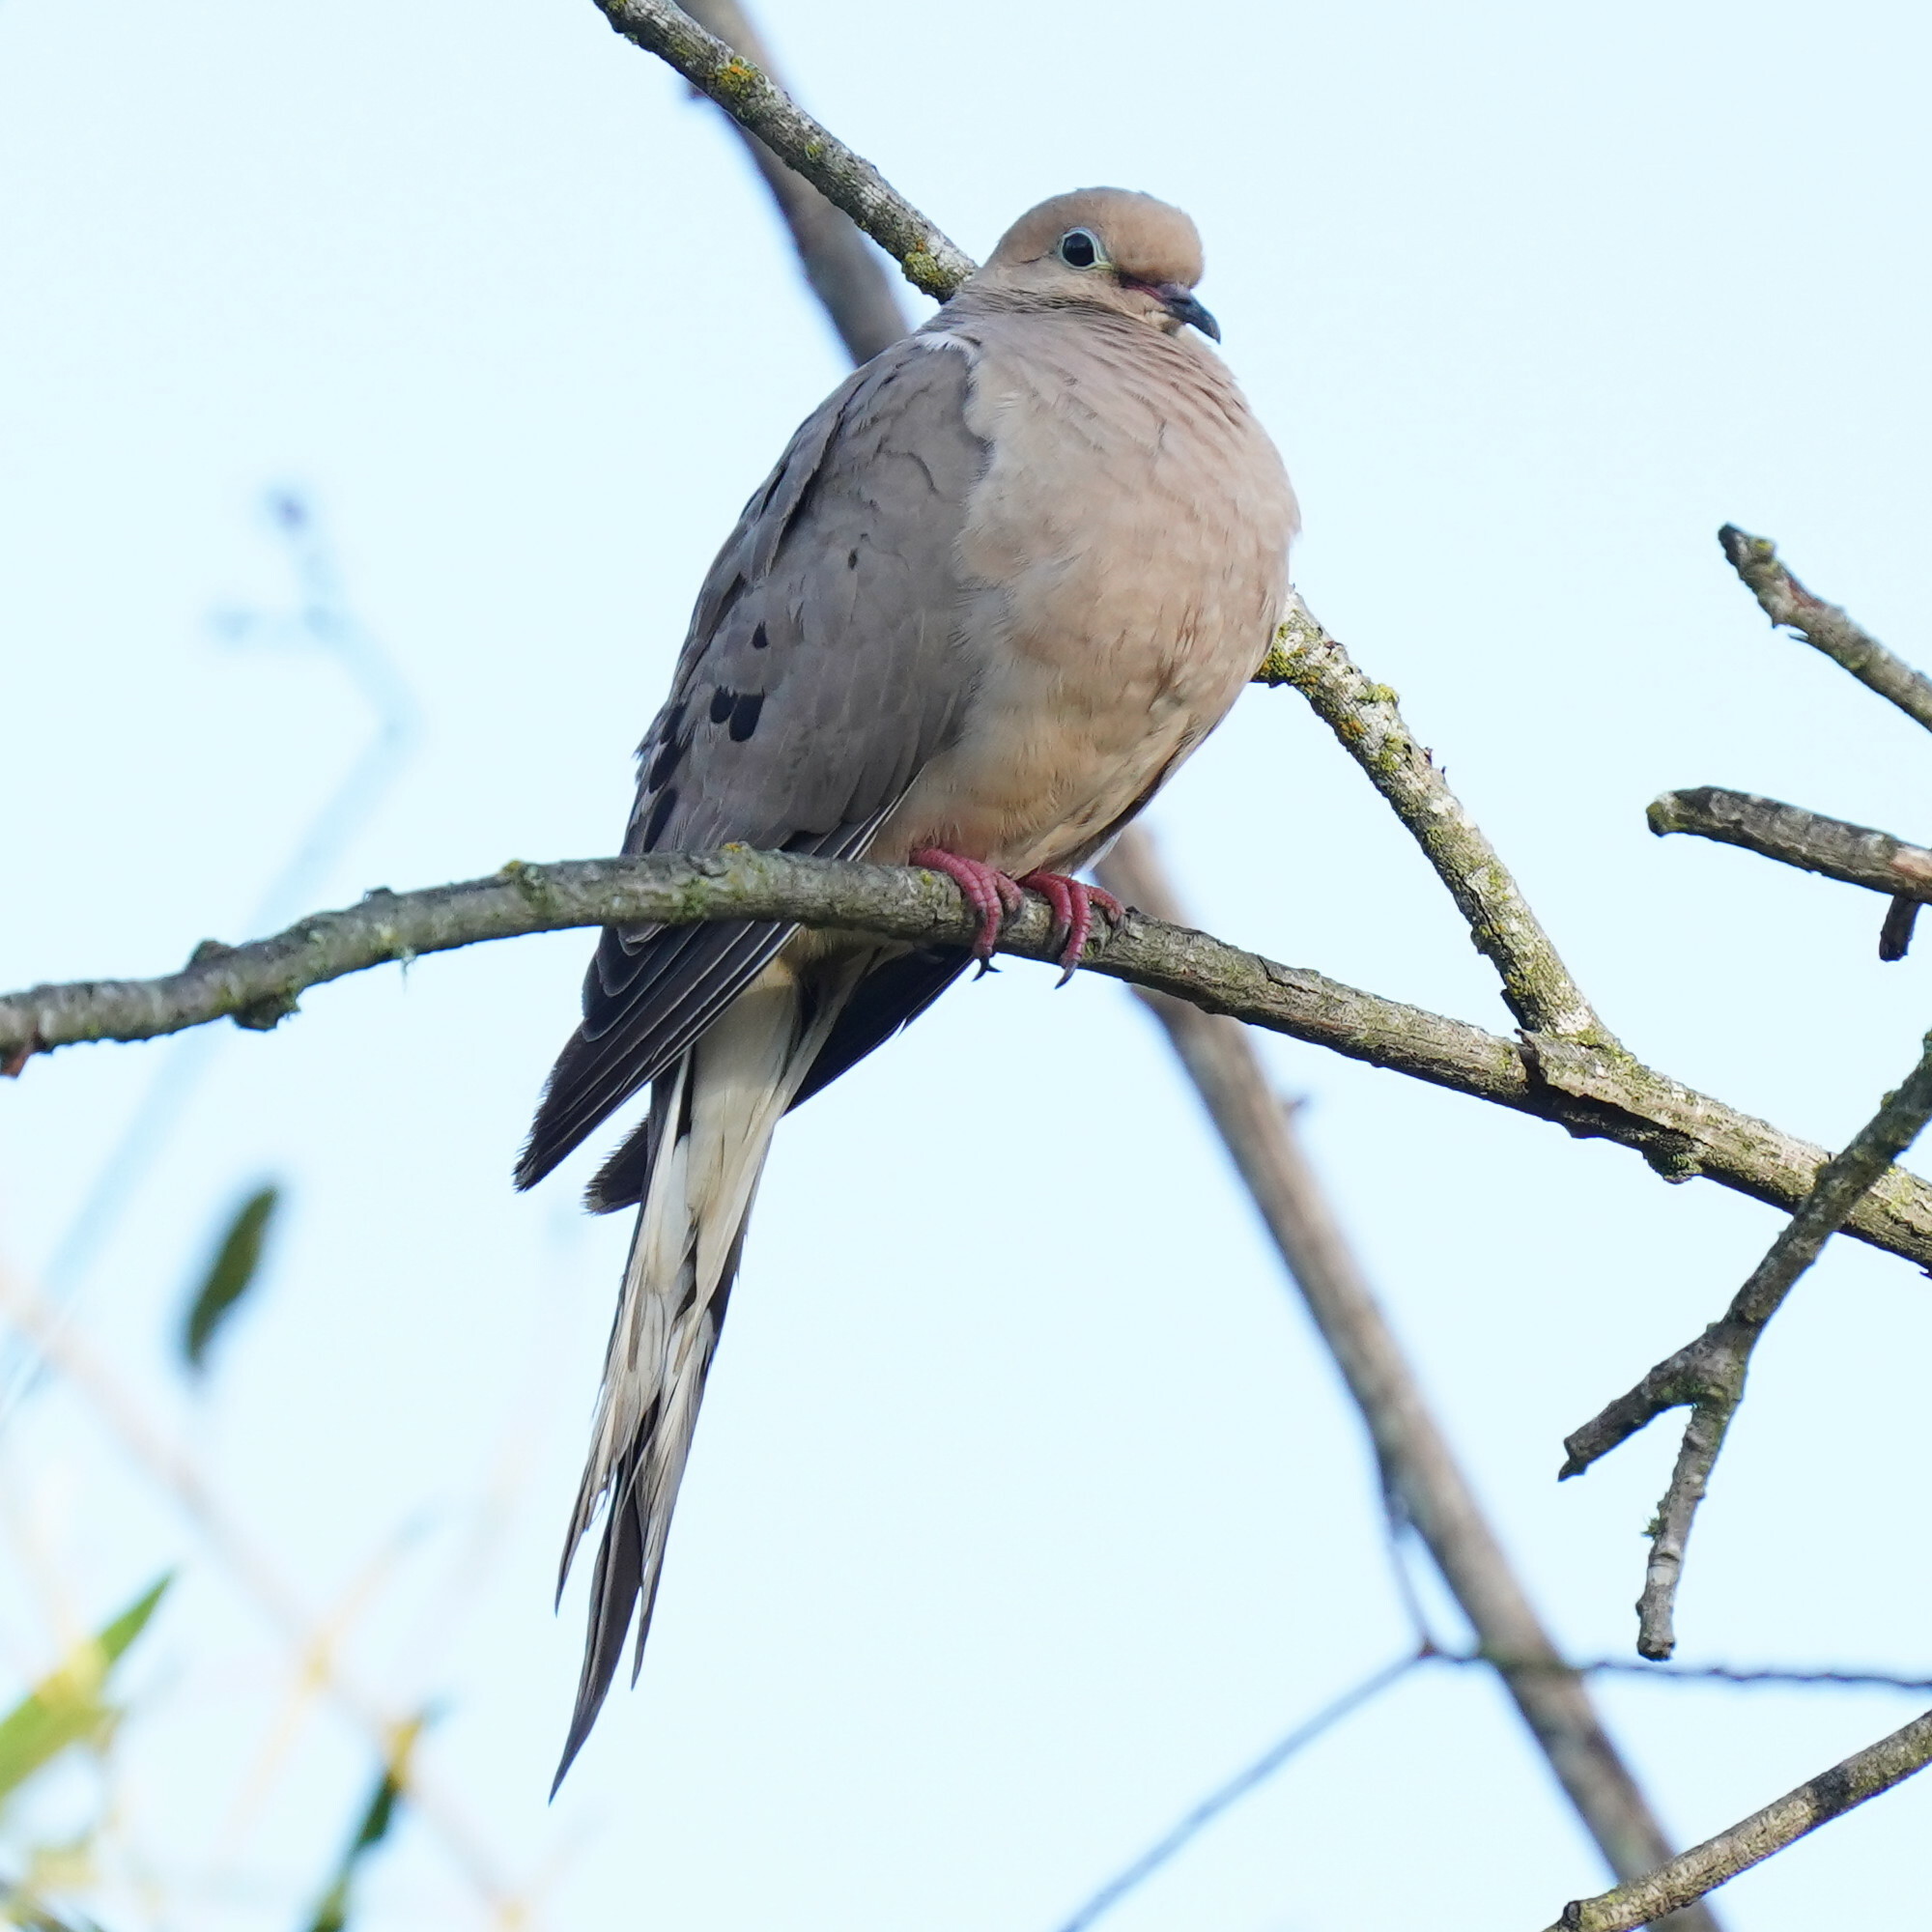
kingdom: Animalia
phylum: Chordata
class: Aves
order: Columbiformes
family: Columbidae
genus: Zenaida
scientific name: Zenaida macroura
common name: Mourning dove
